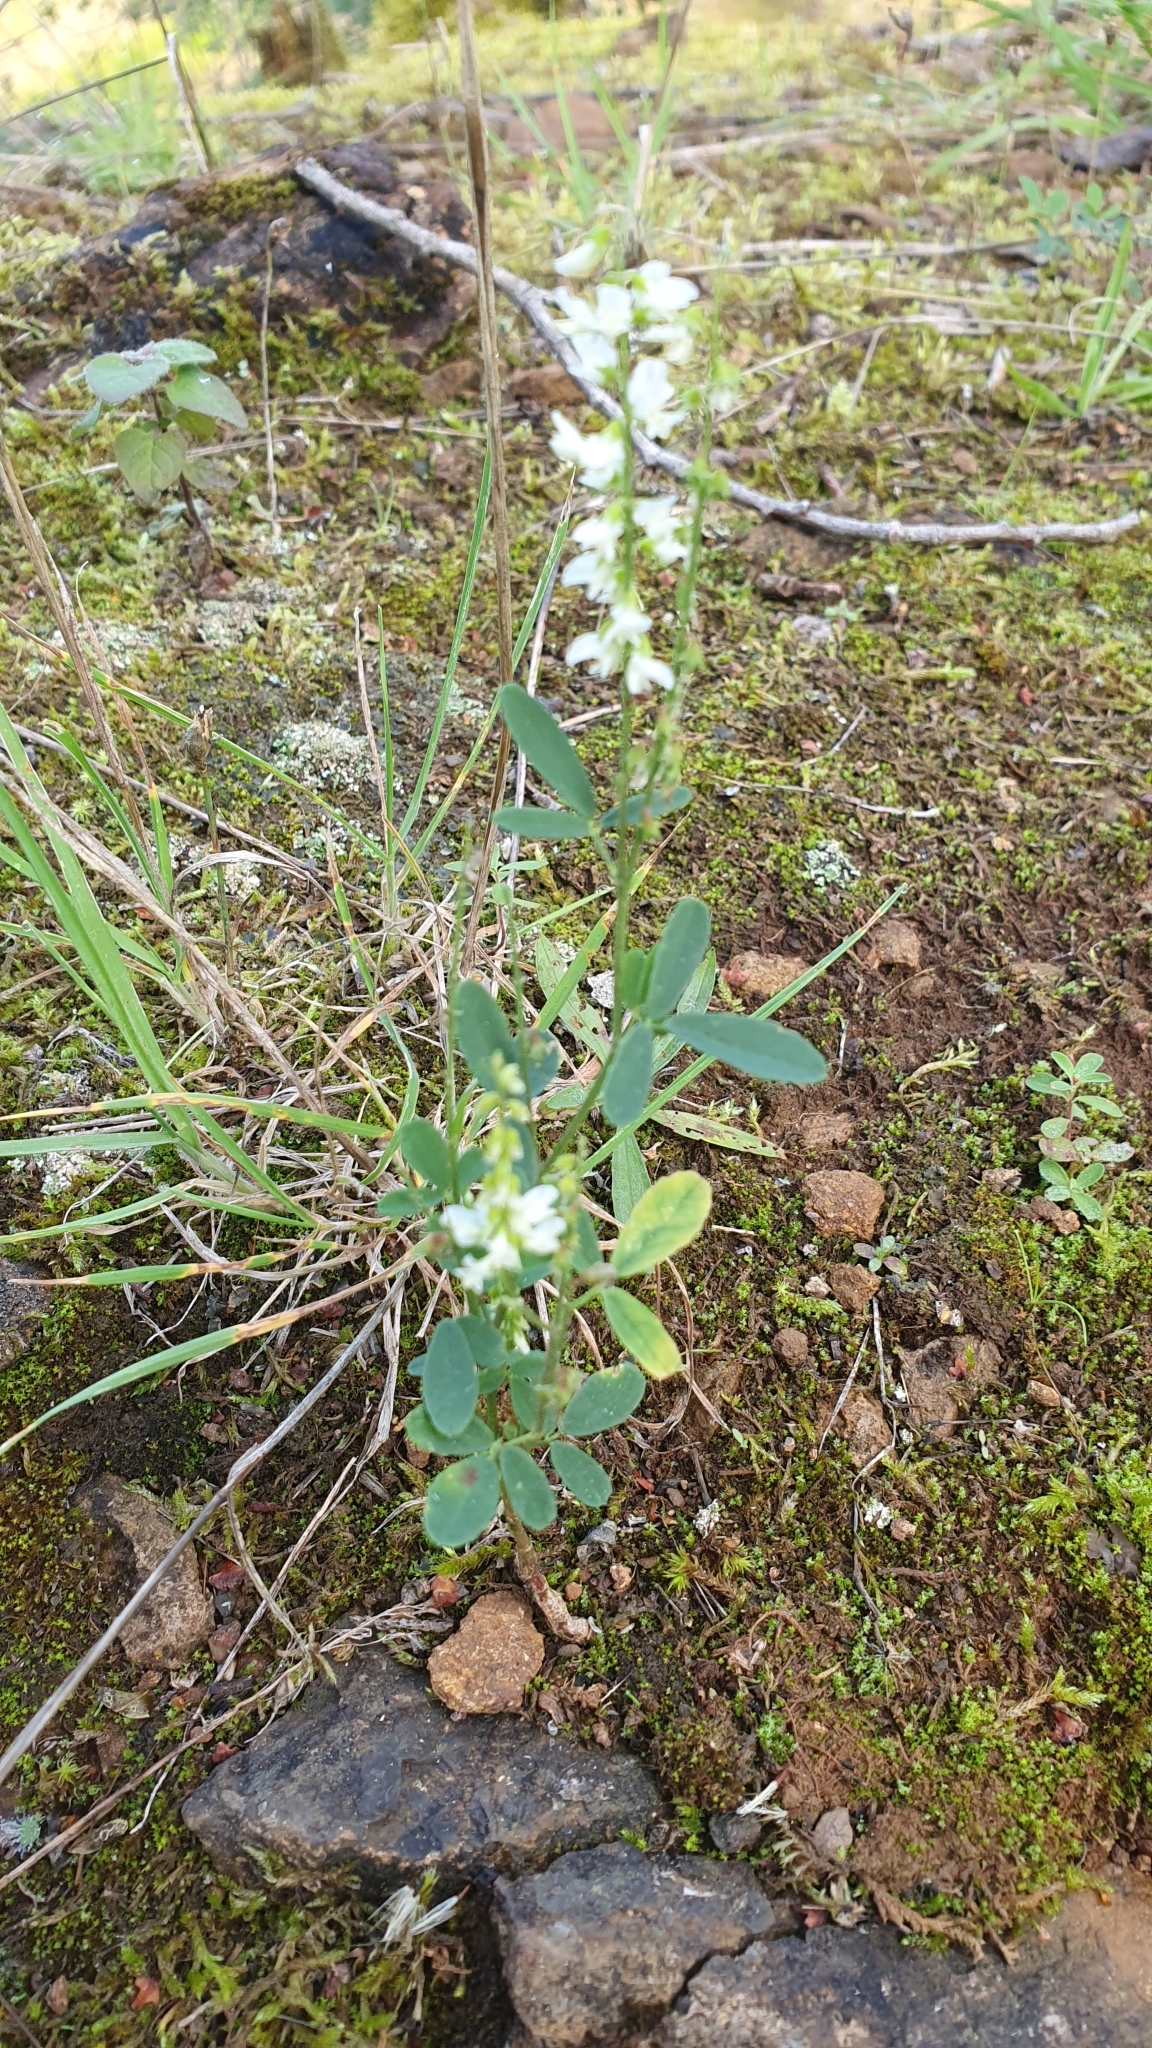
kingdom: Plantae
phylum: Tracheophyta
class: Magnoliopsida
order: Fabales
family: Fabaceae
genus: Melilotus
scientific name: Melilotus albus
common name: White melilot
